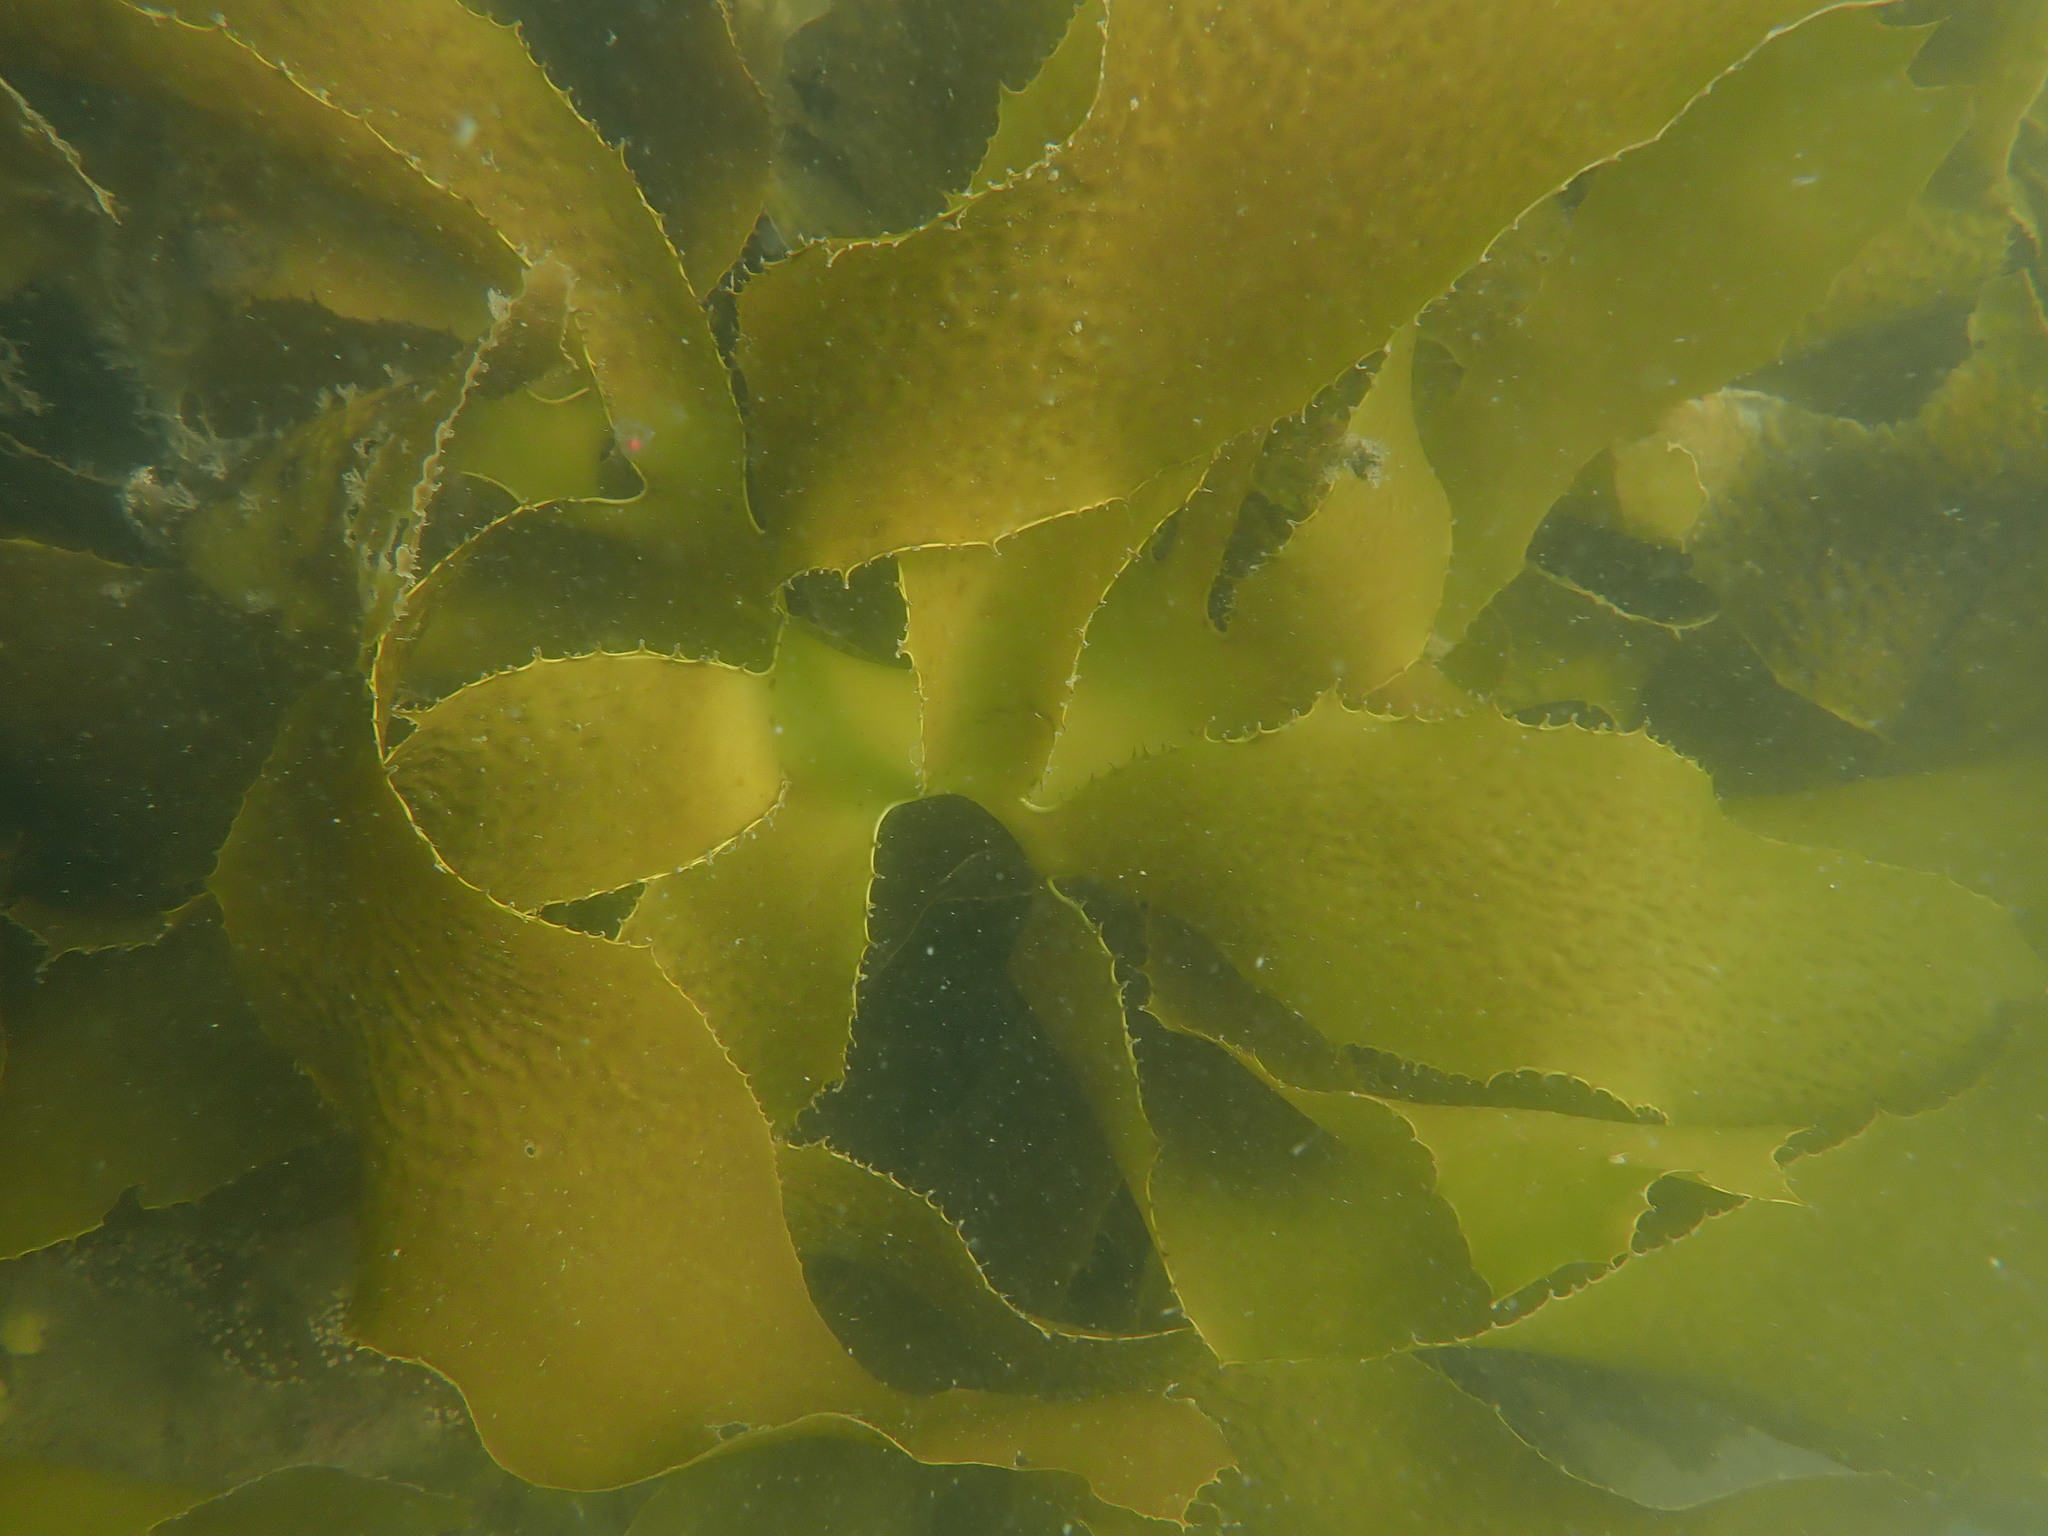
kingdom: Chromista
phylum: Ochrophyta
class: Phaeophyceae
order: Laminariales
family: Lessoniaceae
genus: Ecklonia
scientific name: Ecklonia radiata
